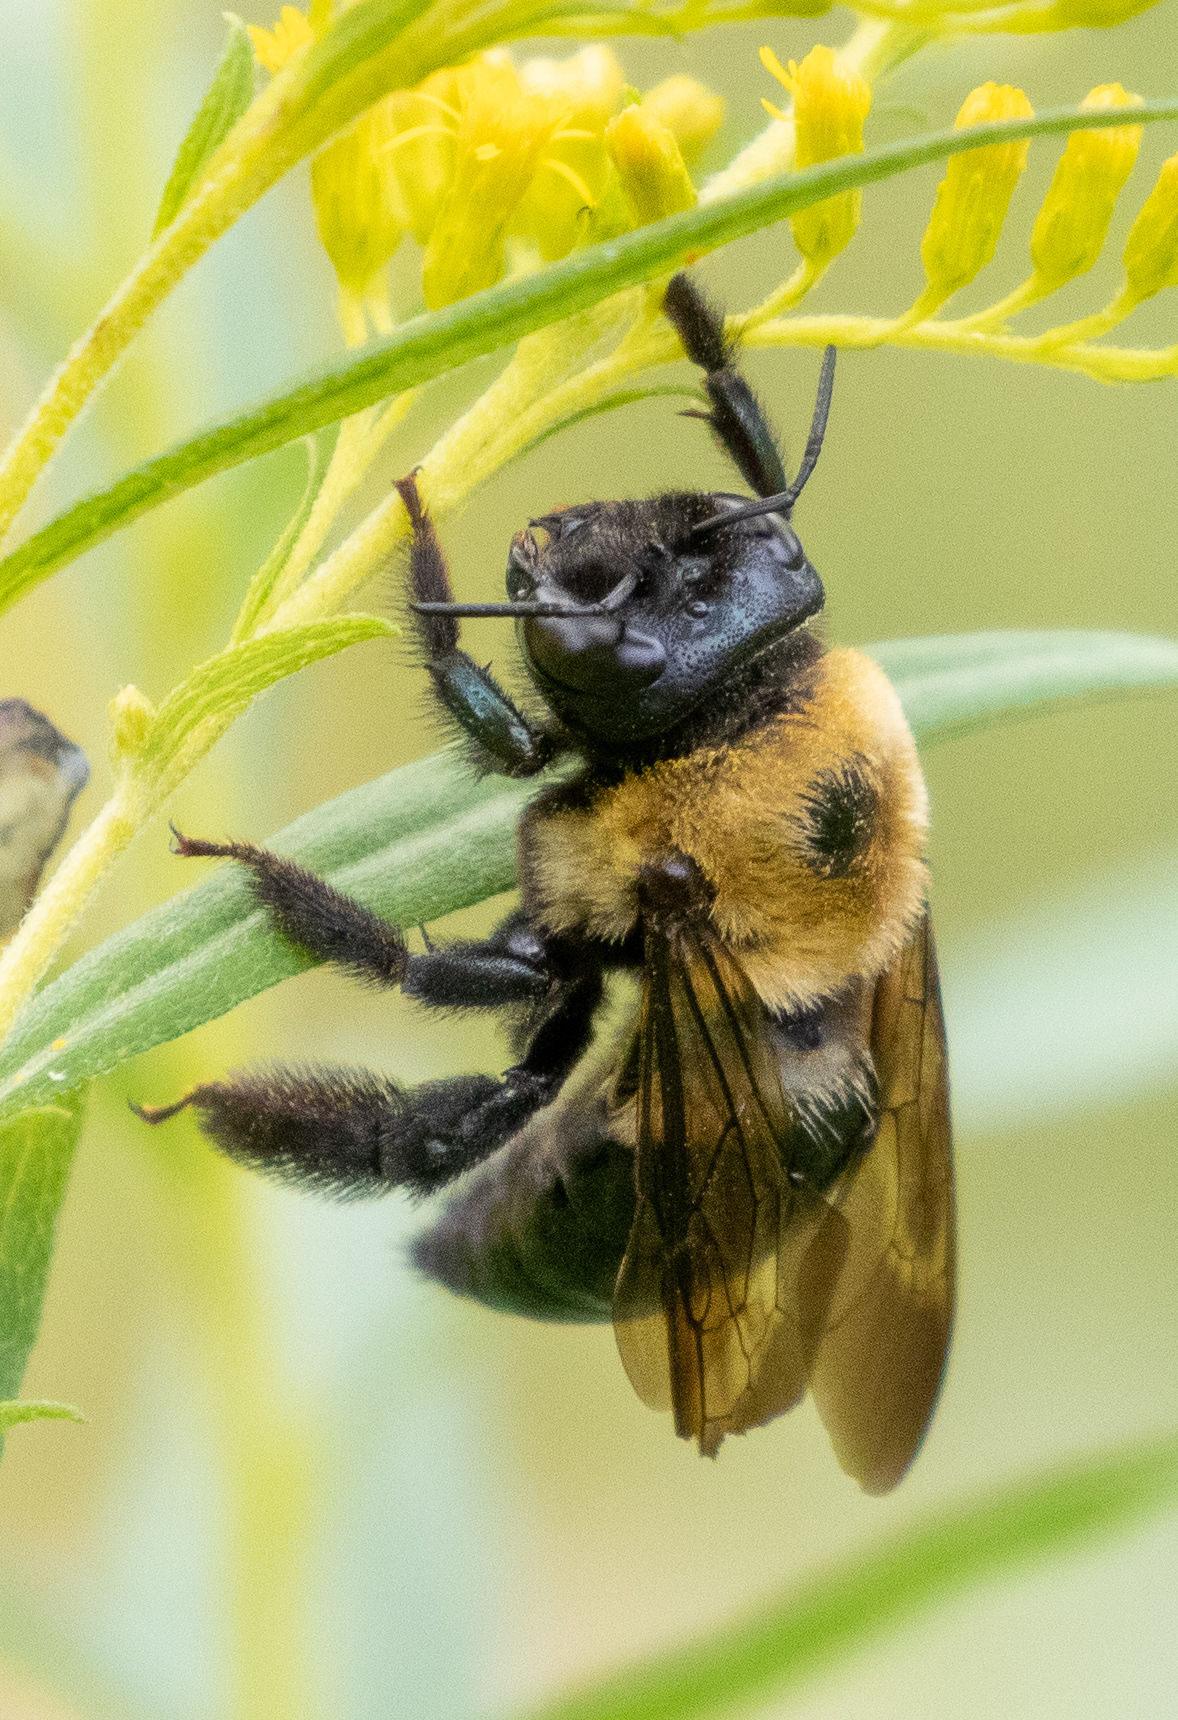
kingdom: Animalia
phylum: Arthropoda
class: Insecta
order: Hymenoptera
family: Apidae
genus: Xylocopa
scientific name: Xylocopa virginica
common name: Carpenter bee
